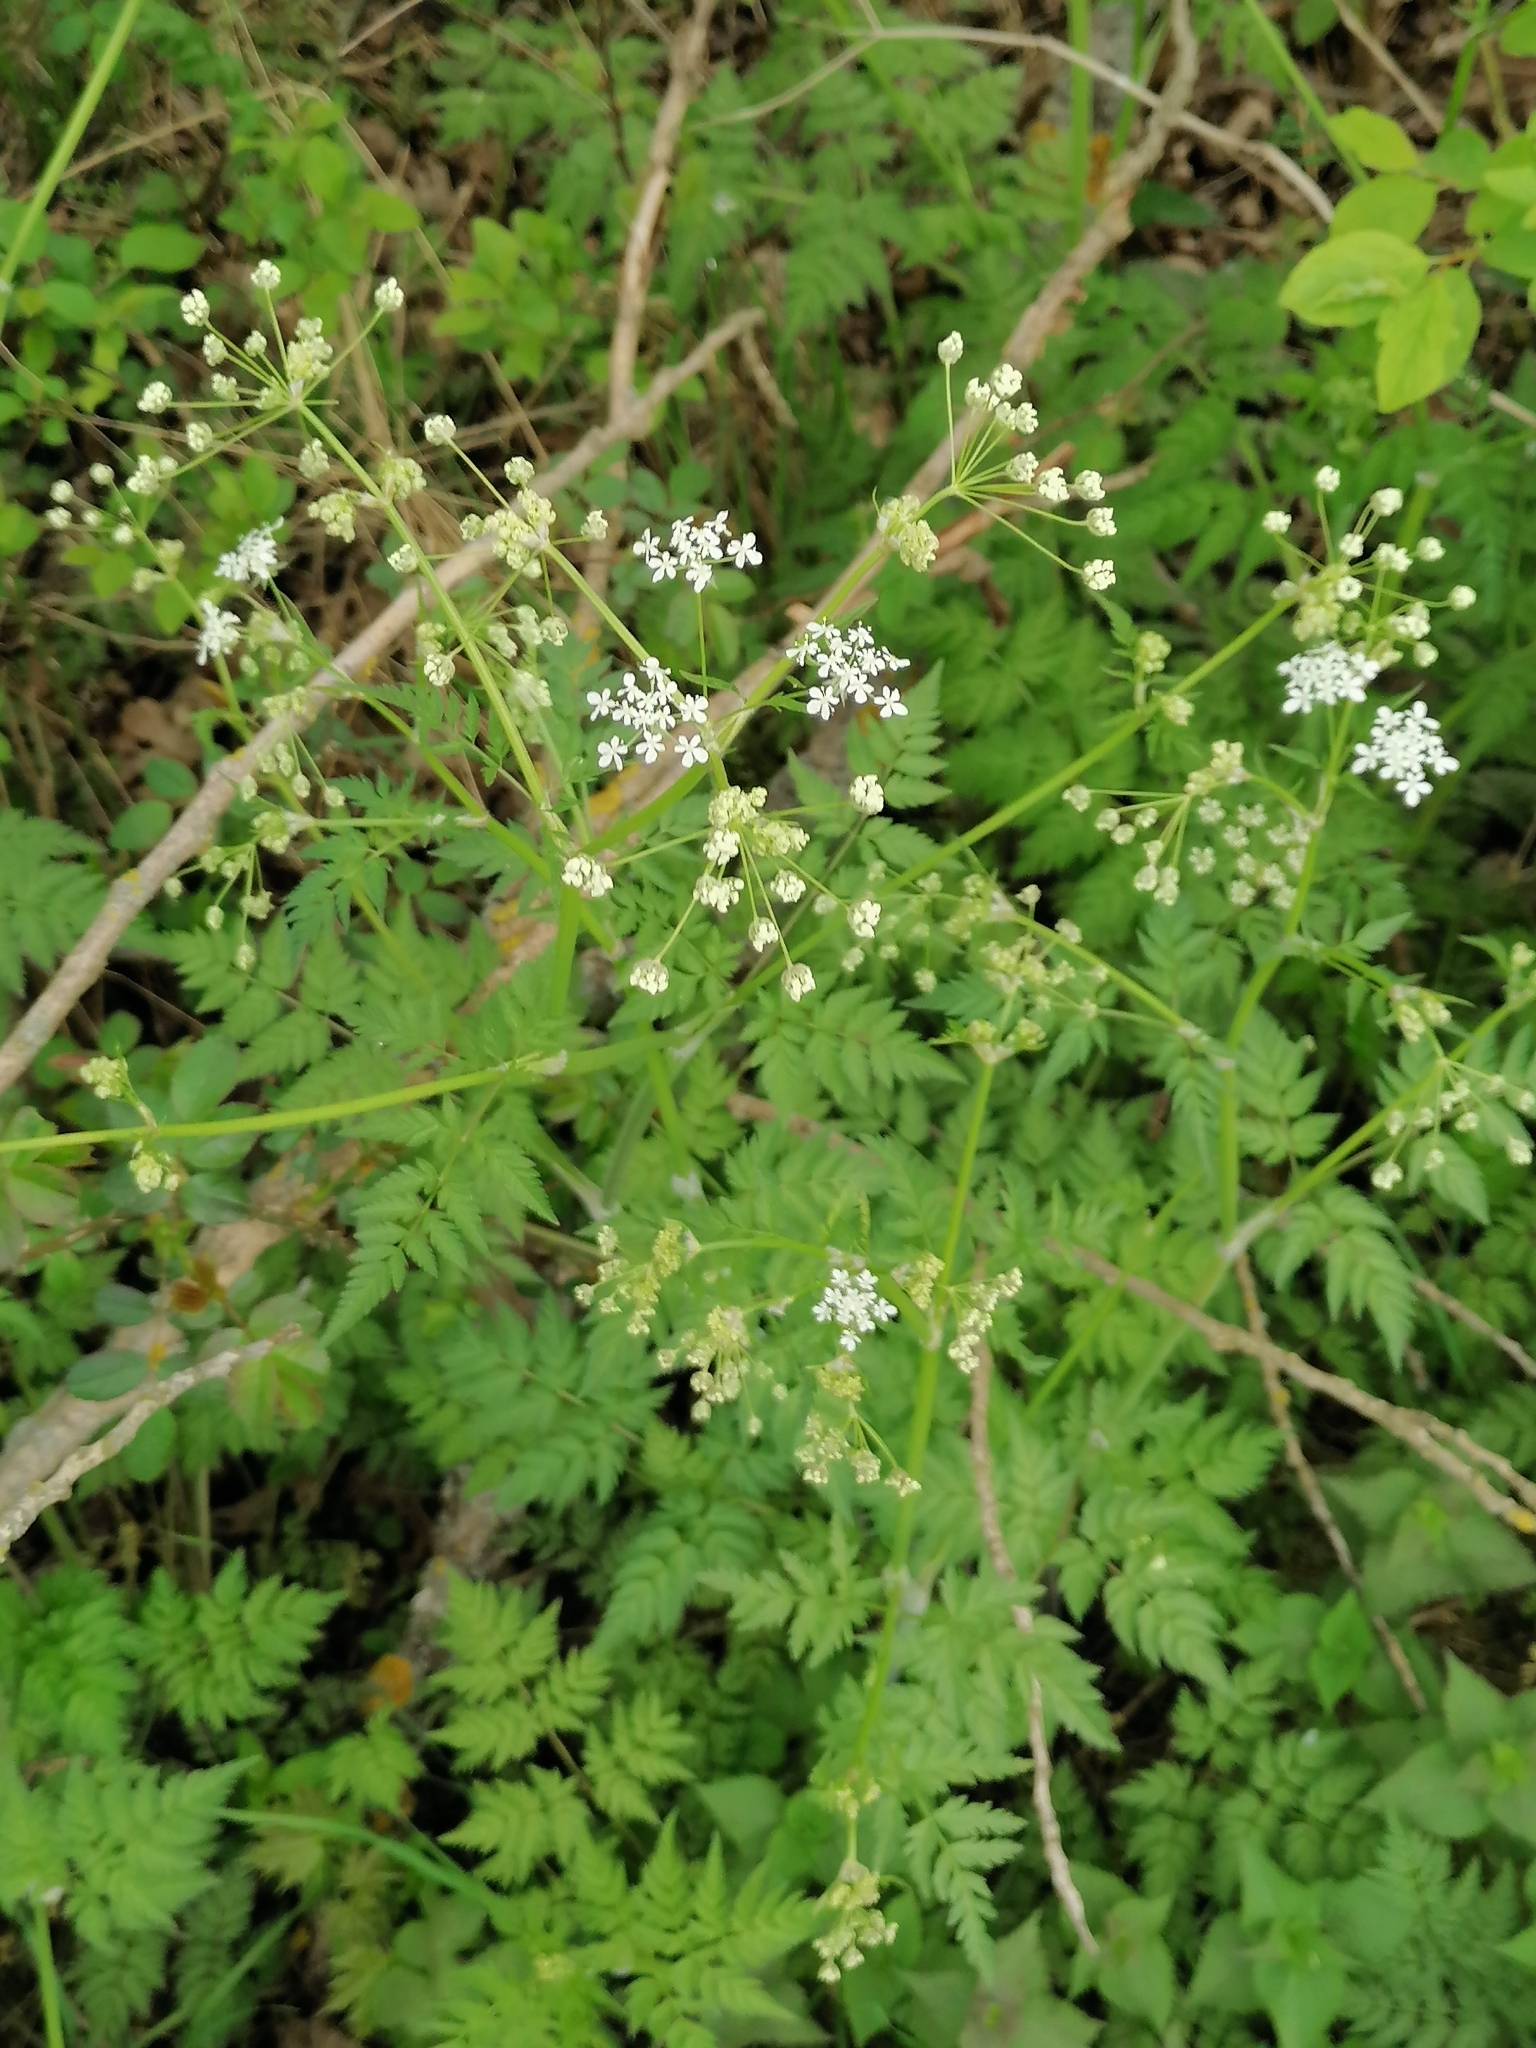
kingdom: Plantae
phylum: Tracheophyta
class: Magnoliopsida
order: Apiales
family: Apiaceae
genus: Anthriscus
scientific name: Anthriscus sylvestris
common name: Cow parsley
